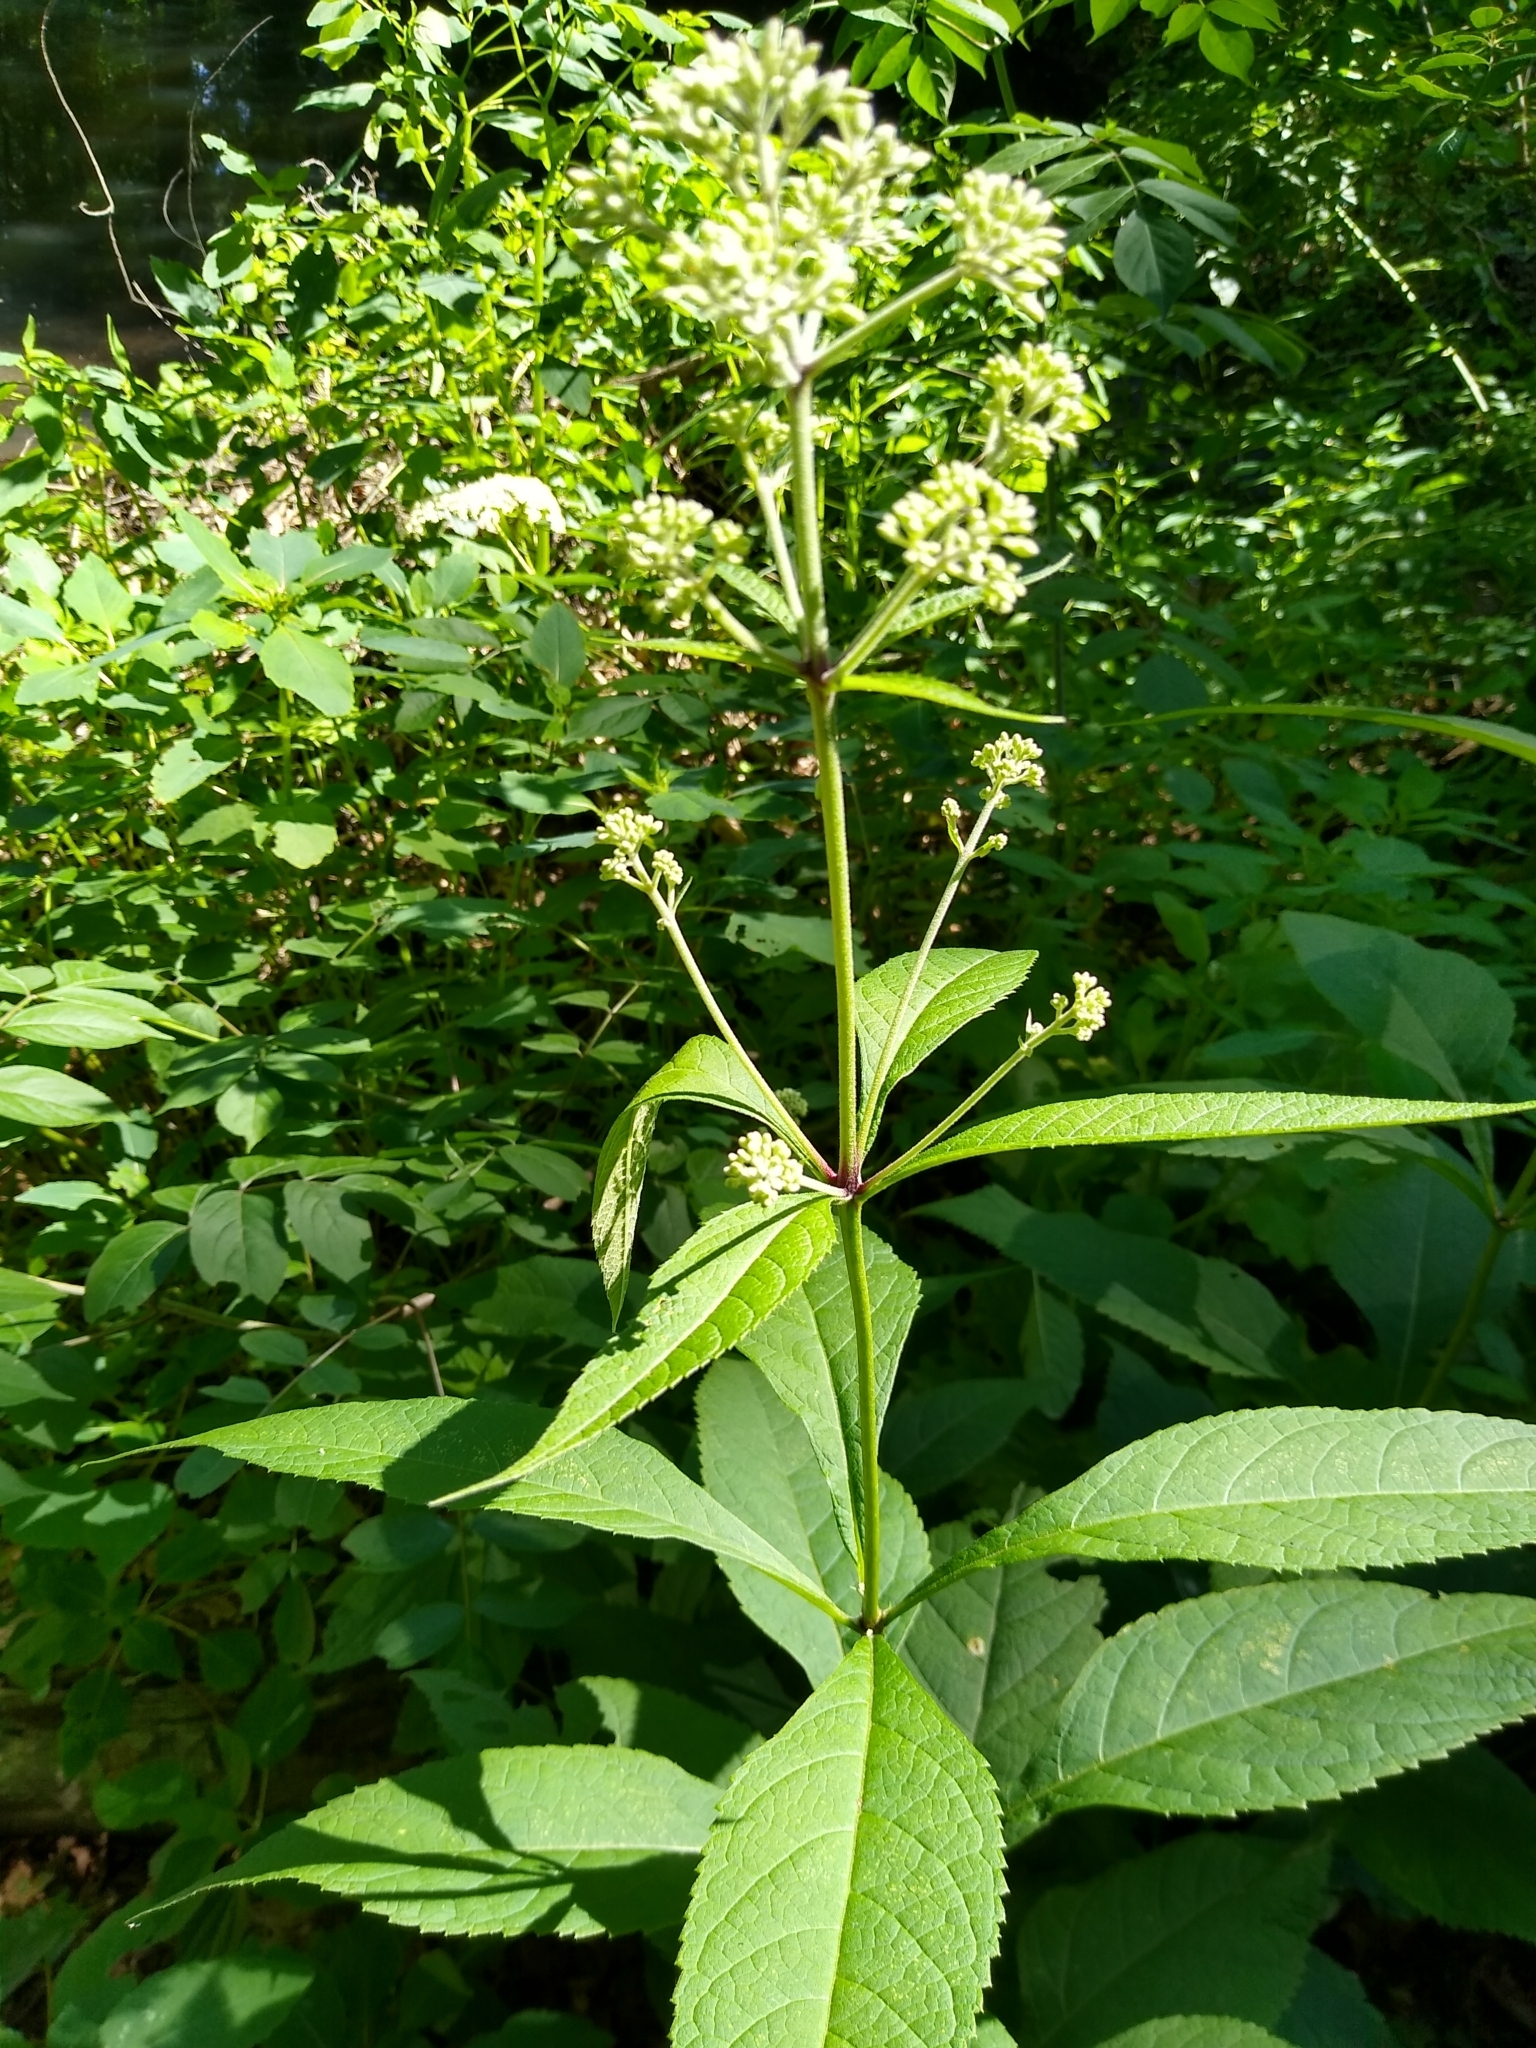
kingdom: Plantae
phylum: Tracheophyta
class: Magnoliopsida
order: Asterales
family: Asteraceae
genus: Eutrochium
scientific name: Eutrochium purpureum
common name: Gravelroot
